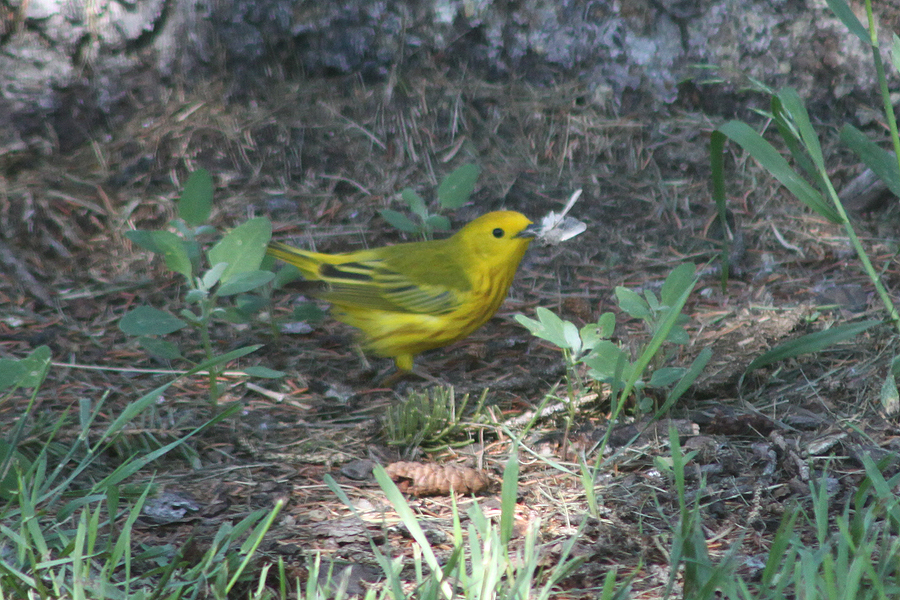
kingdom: Animalia
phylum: Chordata
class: Aves
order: Passeriformes
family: Parulidae
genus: Setophaga
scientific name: Setophaga petechia
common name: Yellow warbler
